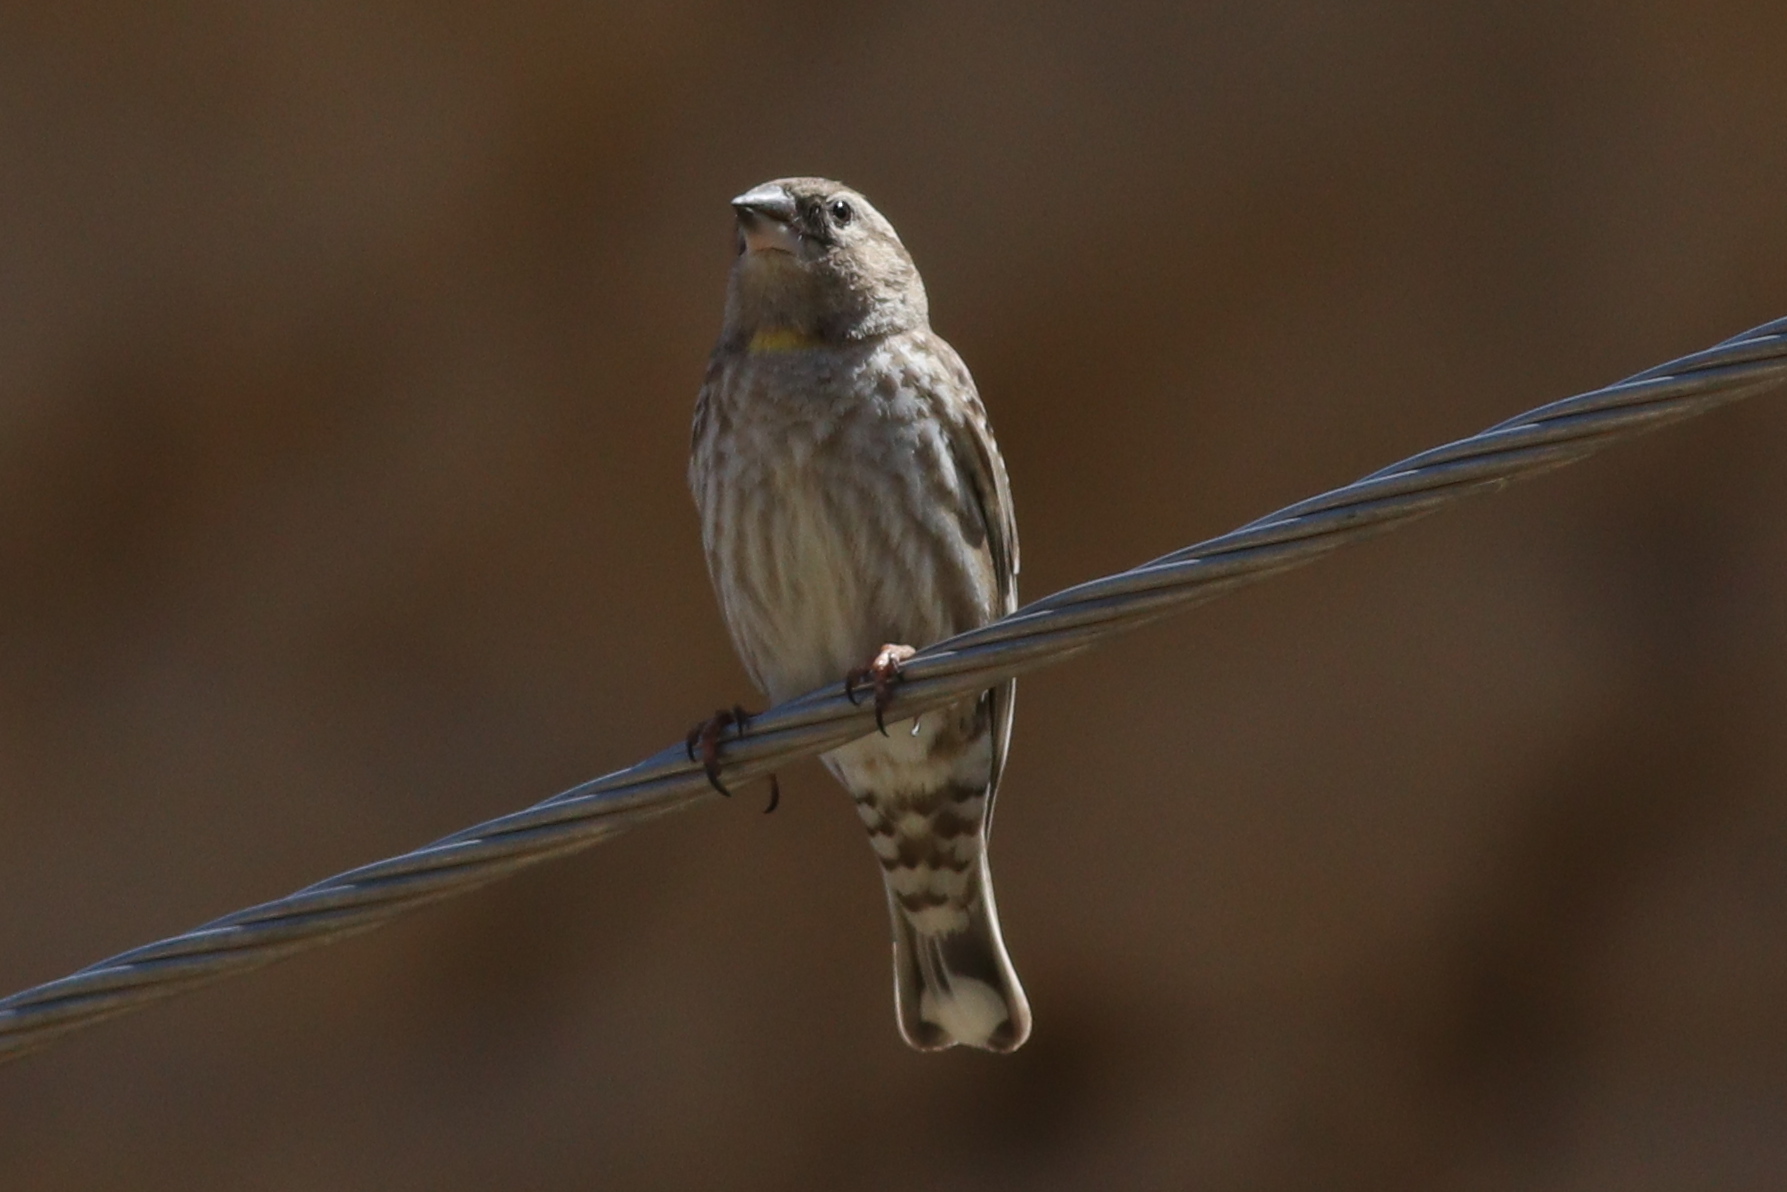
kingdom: Animalia
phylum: Chordata
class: Aves
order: Passeriformes
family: Passeridae
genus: Petronia
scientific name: Petronia petronia
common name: Rock sparrow
